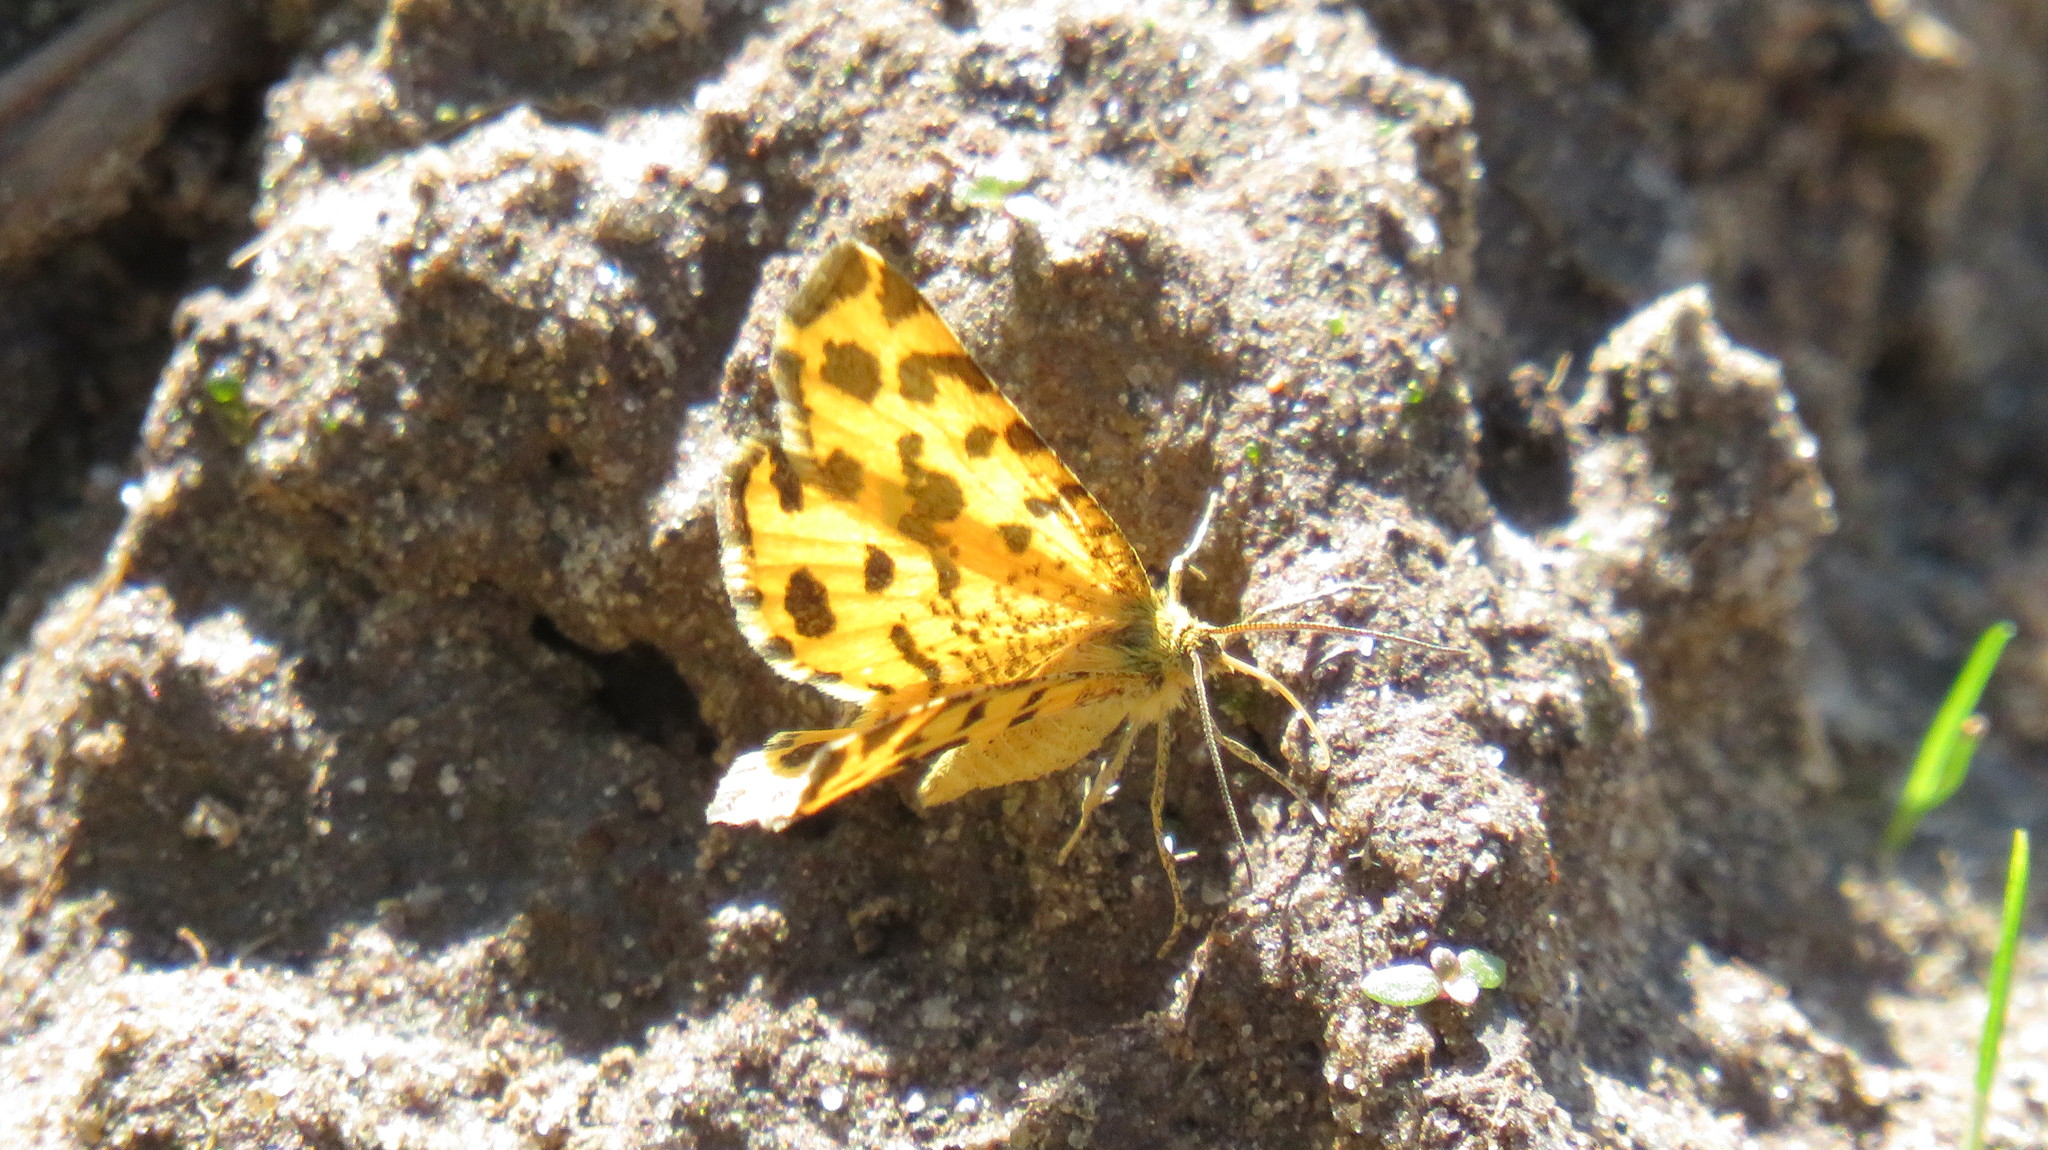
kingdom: Animalia
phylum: Arthropoda
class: Insecta
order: Lepidoptera
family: Geometridae
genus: Pseudopanthera
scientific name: Pseudopanthera macularia
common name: Speckled yellow
